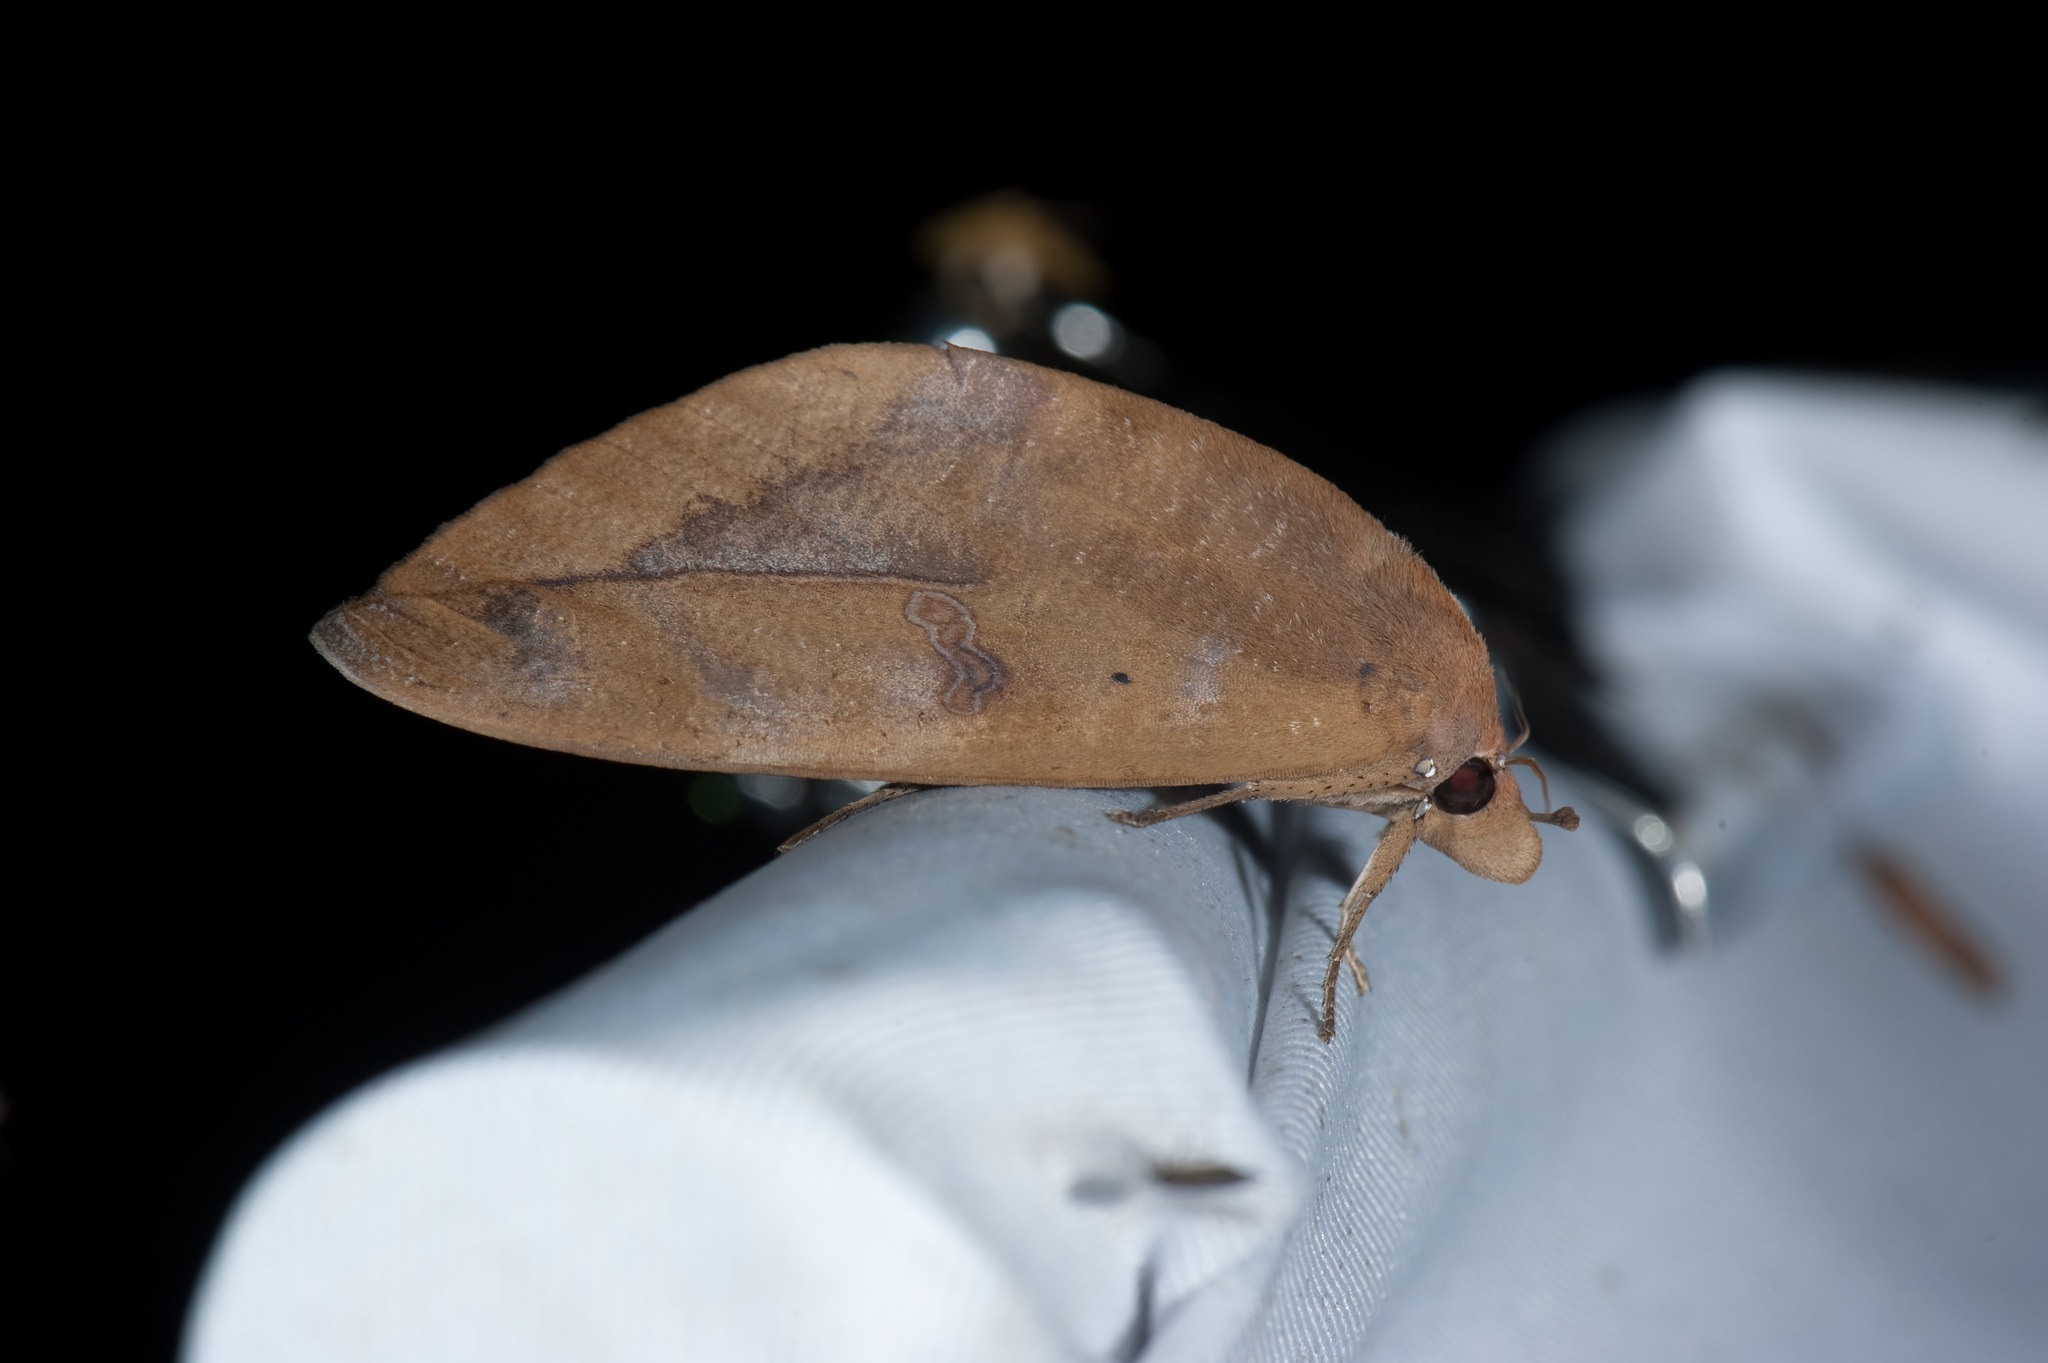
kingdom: Animalia
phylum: Arthropoda
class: Insecta
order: Lepidoptera
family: Erebidae
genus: Phyllodes
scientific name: Phyllodes eyndhovii
